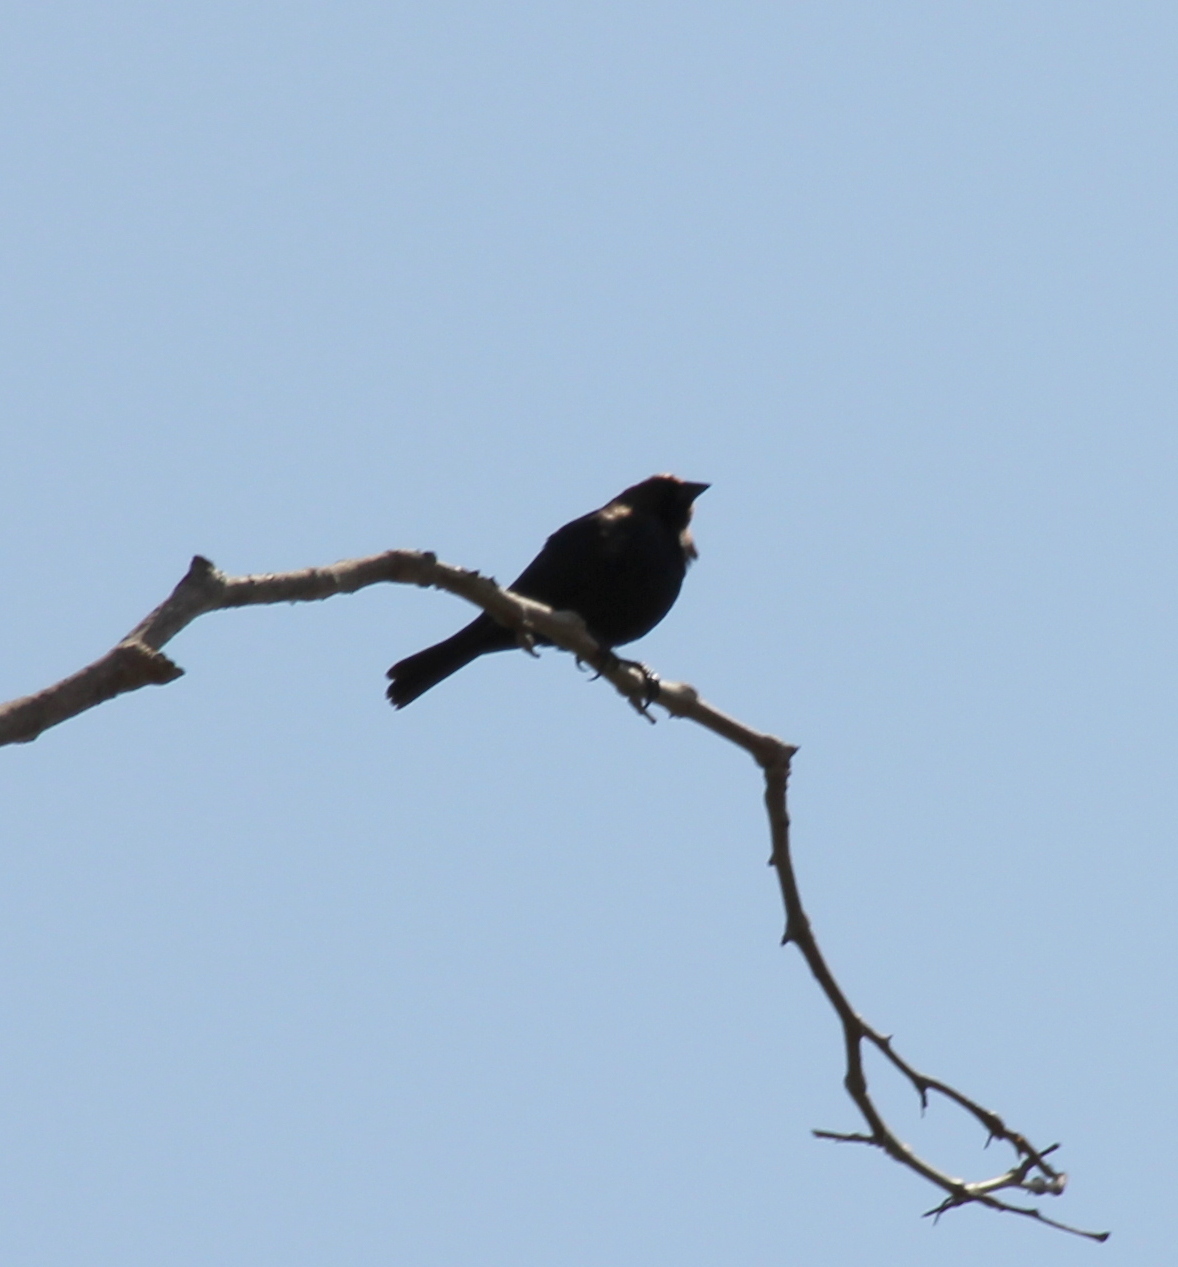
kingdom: Animalia
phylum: Chordata
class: Aves
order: Passeriformes
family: Icteridae
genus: Molothrus
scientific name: Molothrus ater
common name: Brown-headed cowbird
